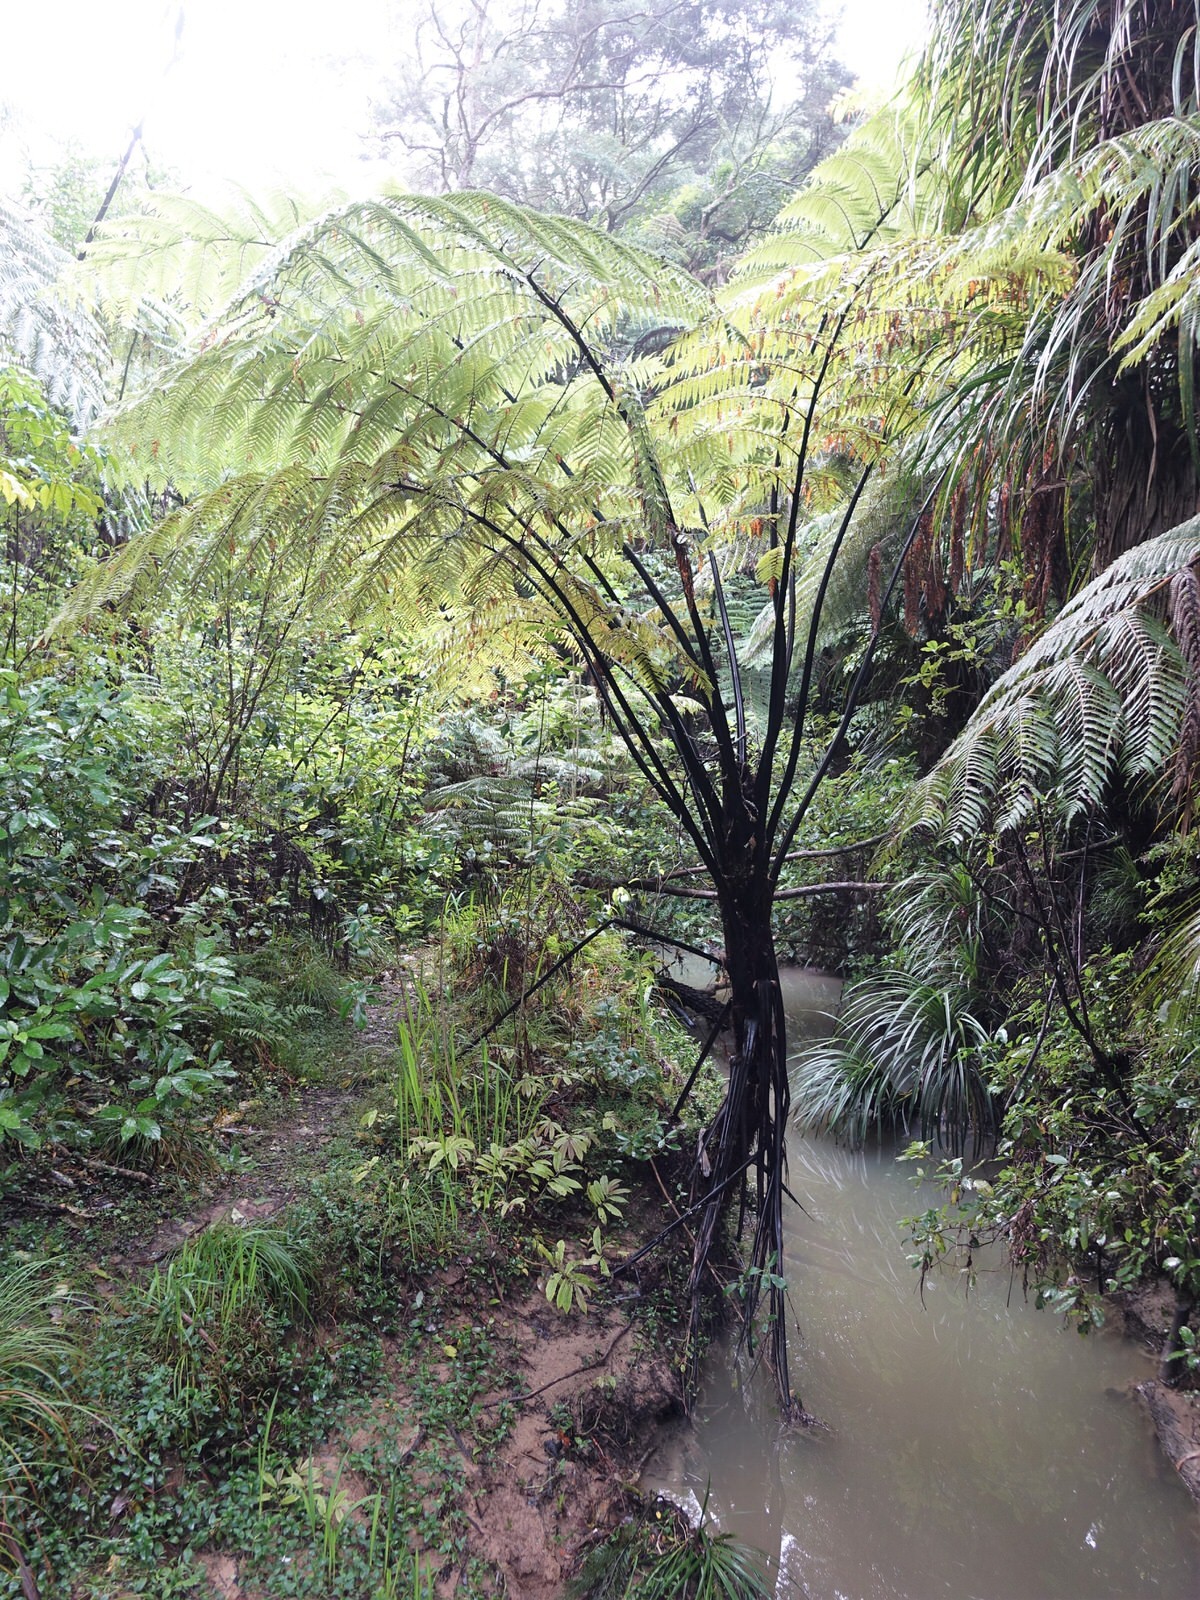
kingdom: Plantae
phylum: Tracheophyta
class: Polypodiopsida
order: Cyatheales
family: Cyatheaceae
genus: Sphaeropteris
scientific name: Sphaeropteris medullaris
